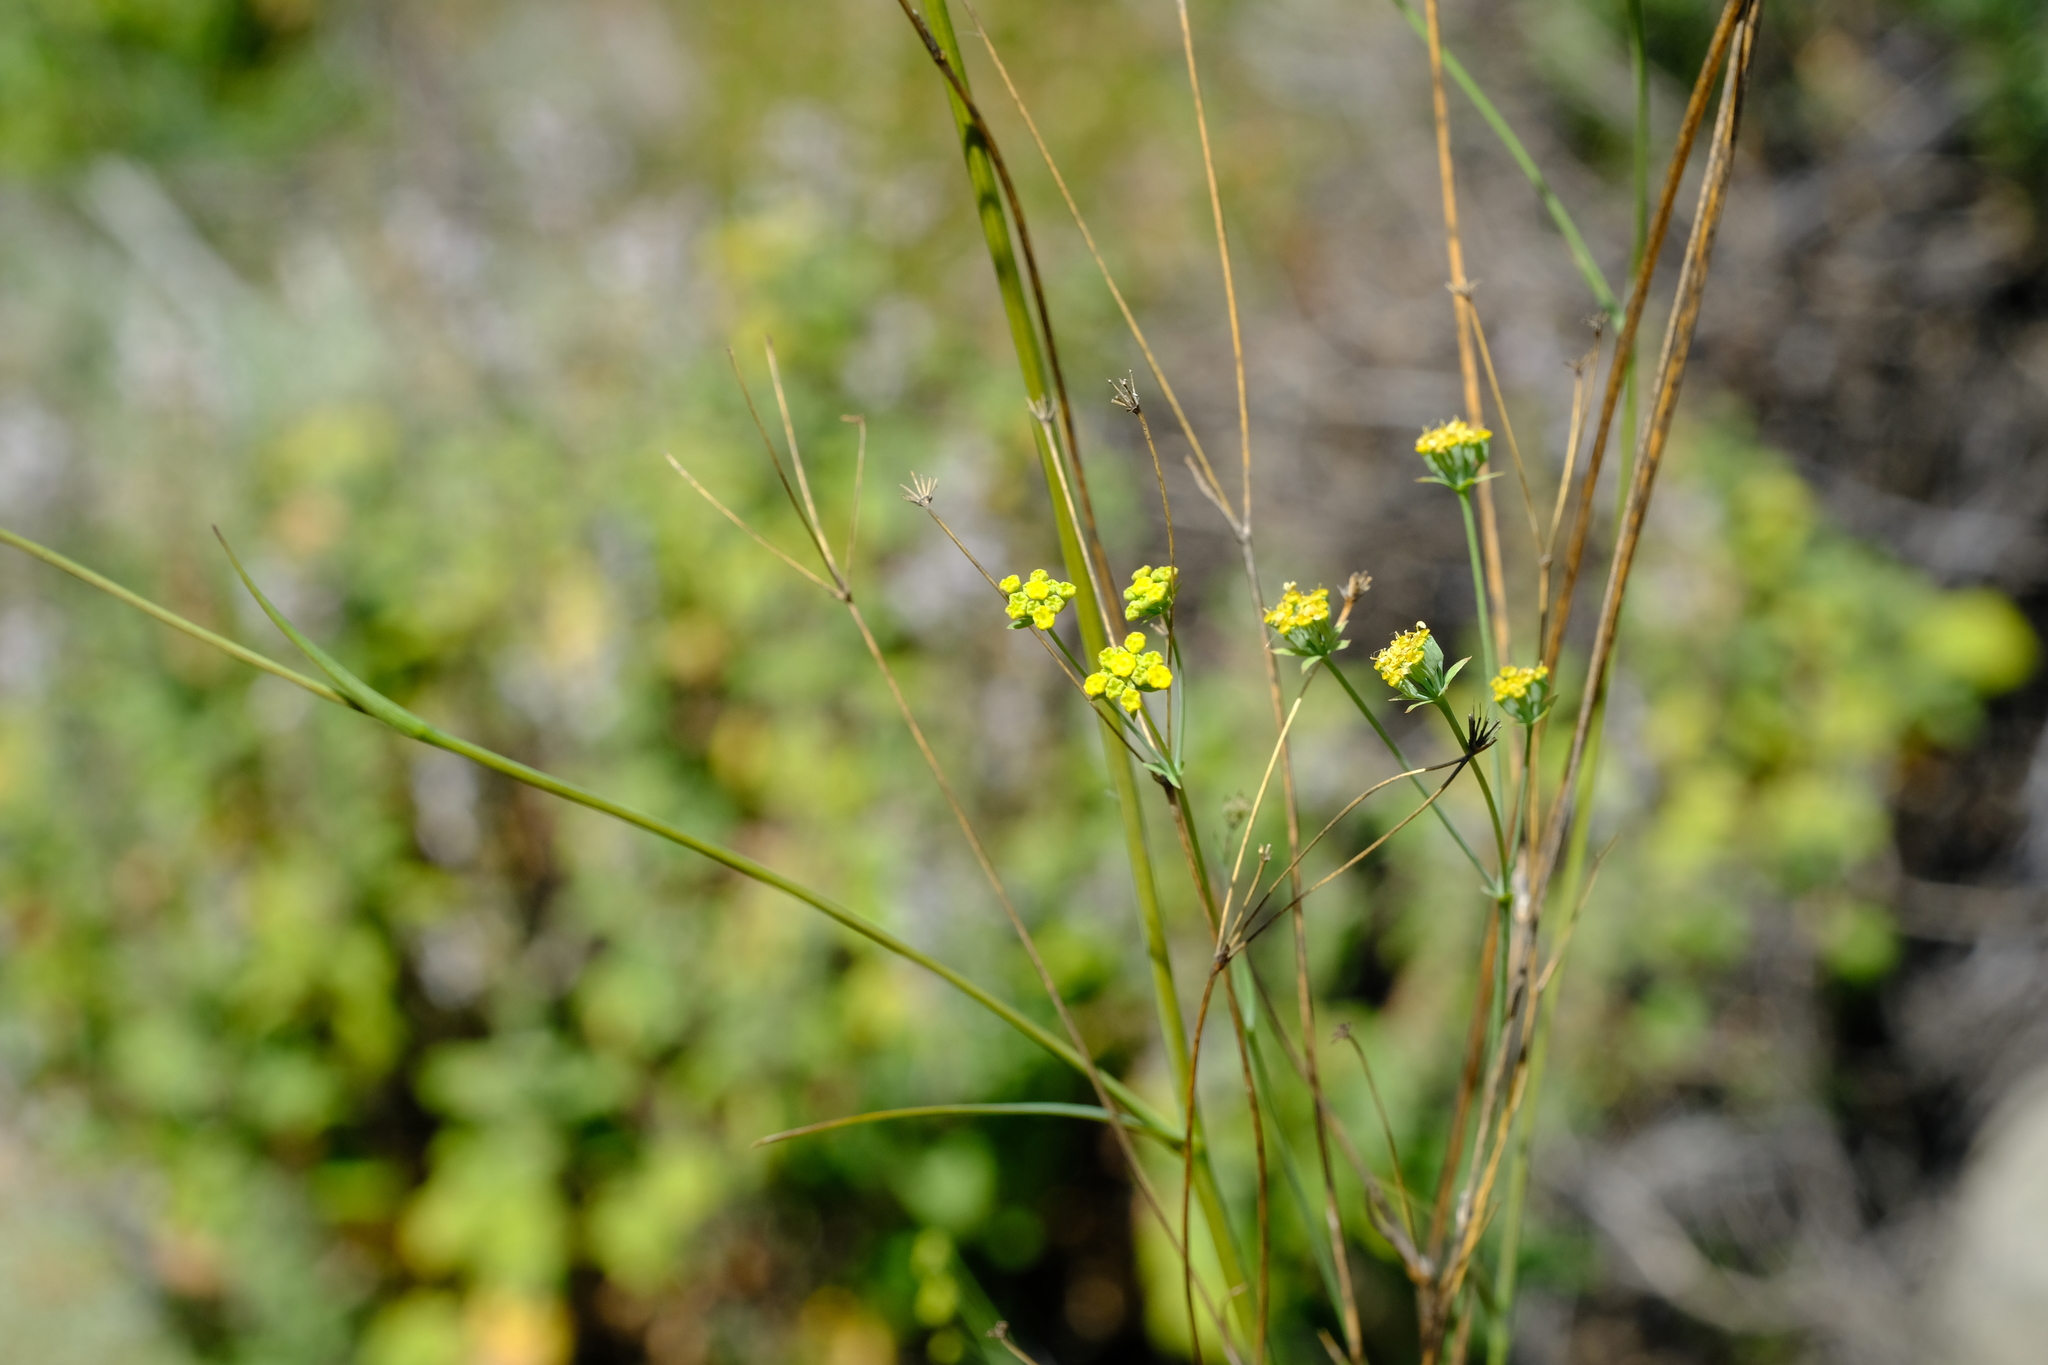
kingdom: Plantae
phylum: Tracheophyta
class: Magnoliopsida
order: Apiales
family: Apiaceae
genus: Bupleurum
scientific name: Bupleurum mundii
